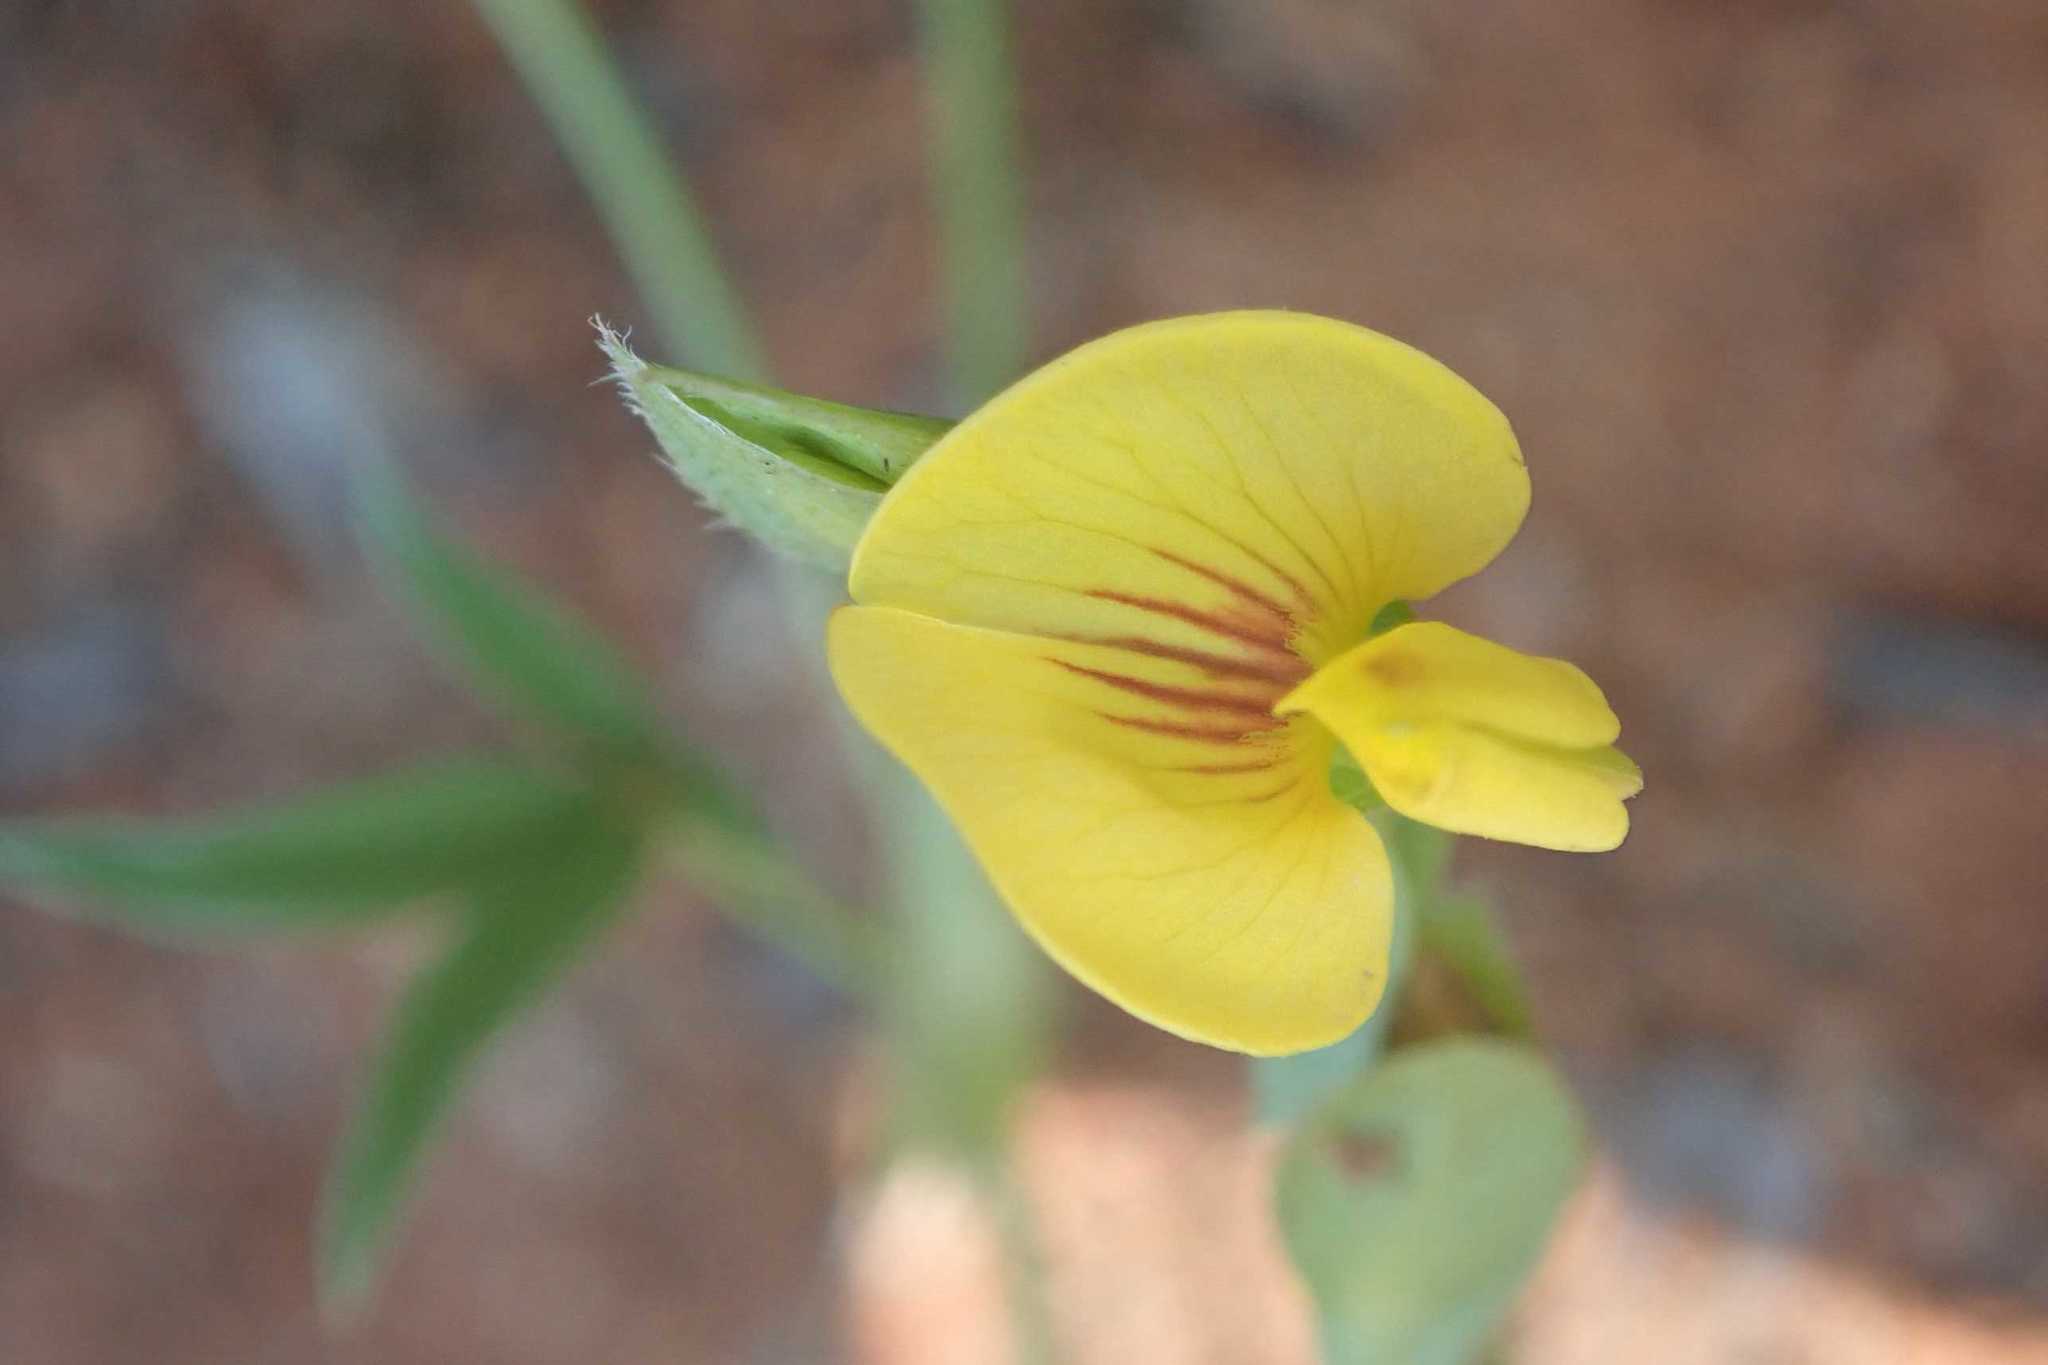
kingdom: Plantae
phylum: Tracheophyta
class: Magnoliopsida
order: Fabales
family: Fabaceae
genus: Zornia
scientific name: Zornia capensis
